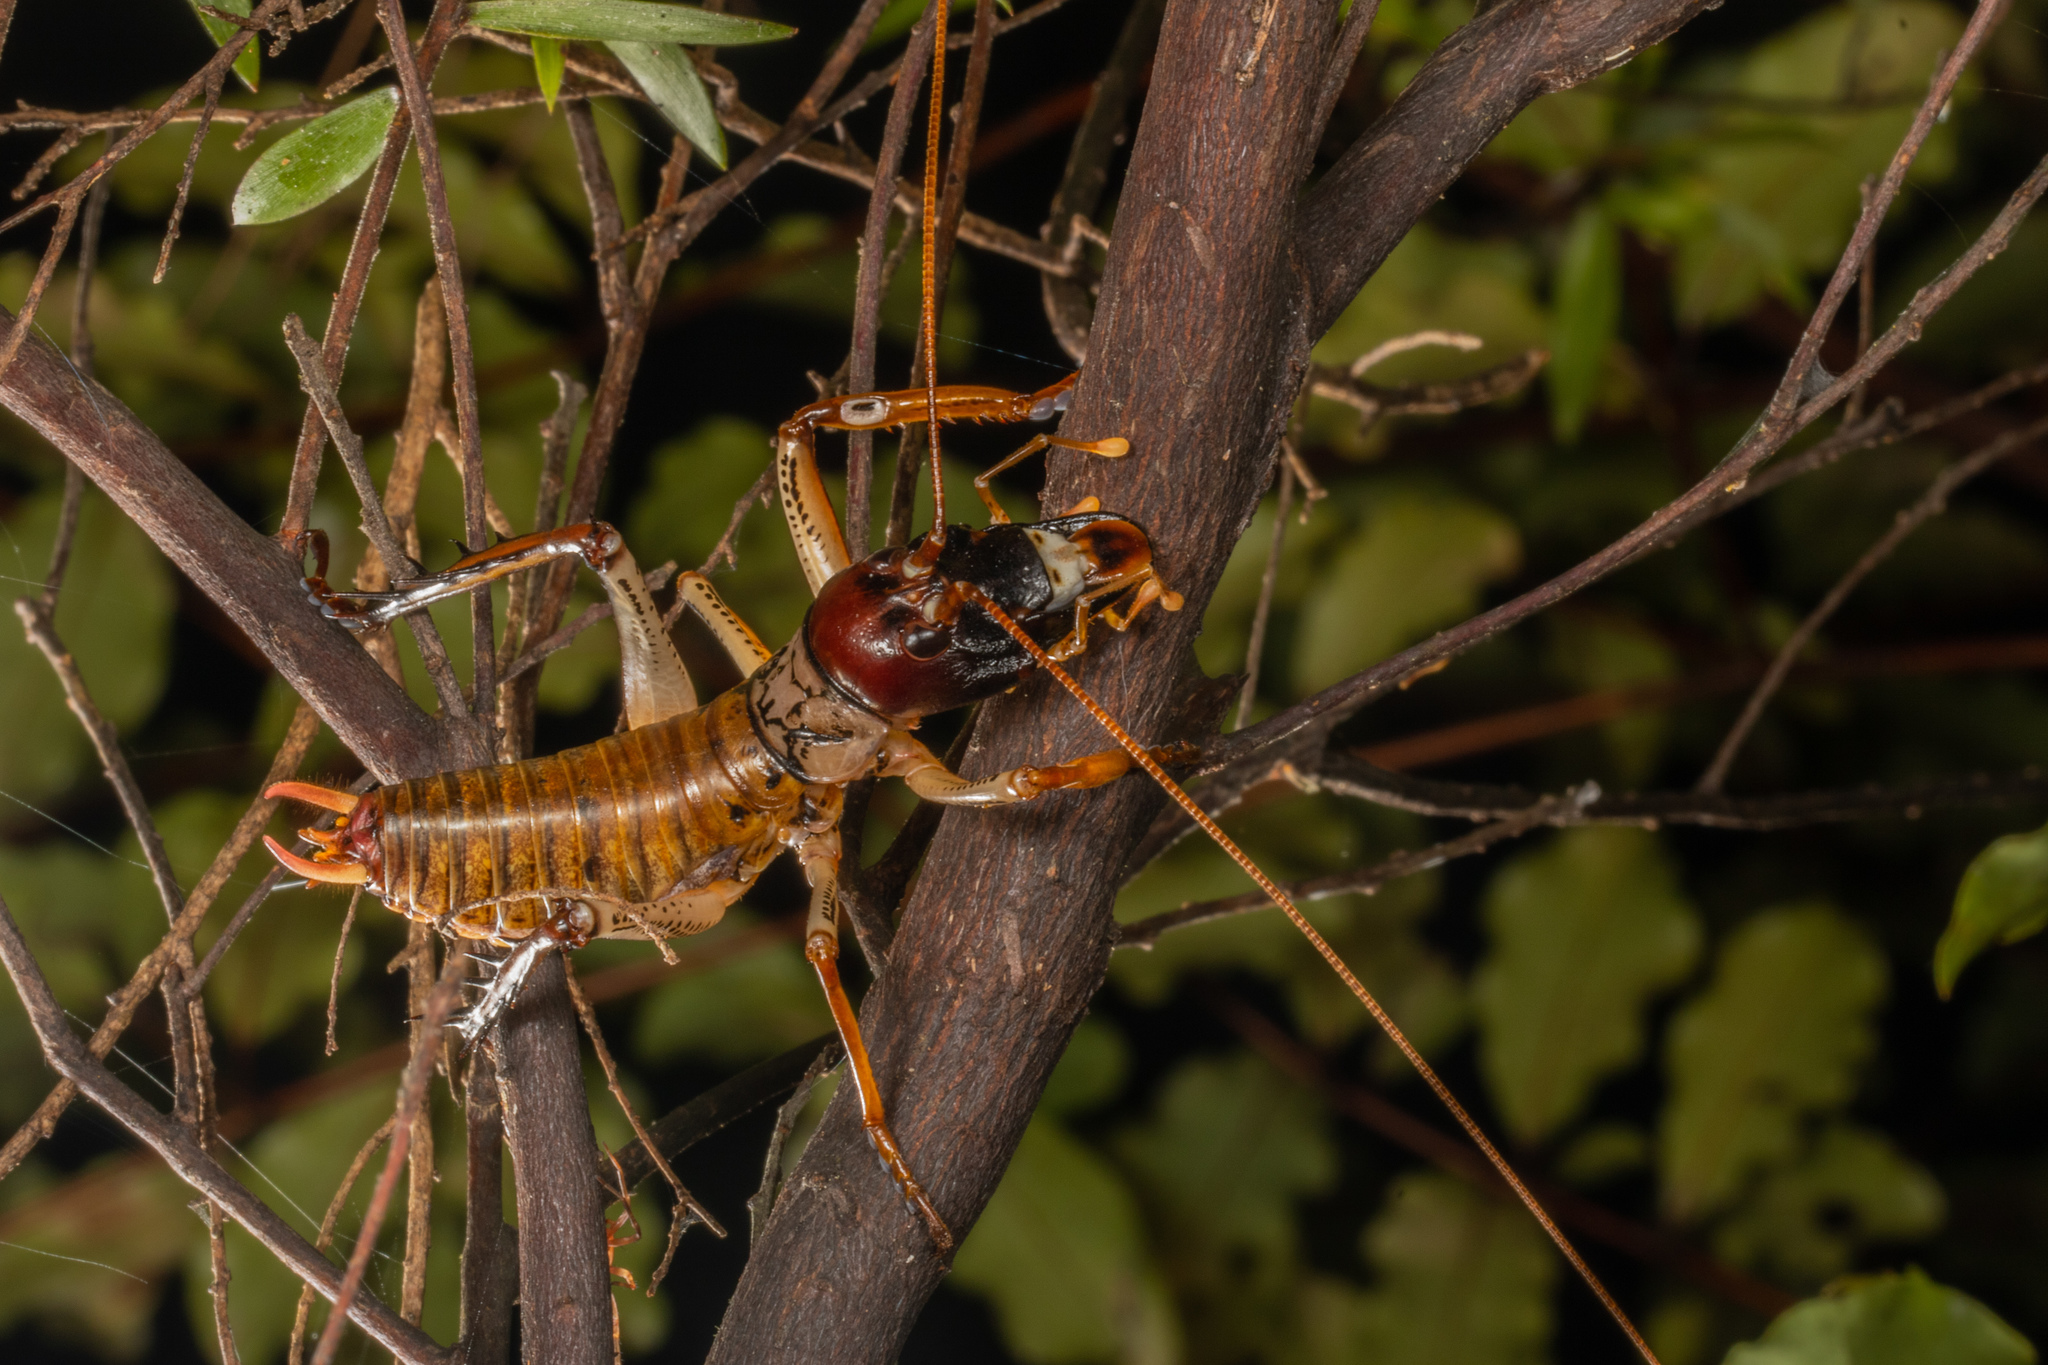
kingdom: Animalia
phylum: Arthropoda
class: Insecta
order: Orthoptera
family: Anostostomatidae
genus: Hemideina
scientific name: Hemideina thoracica
